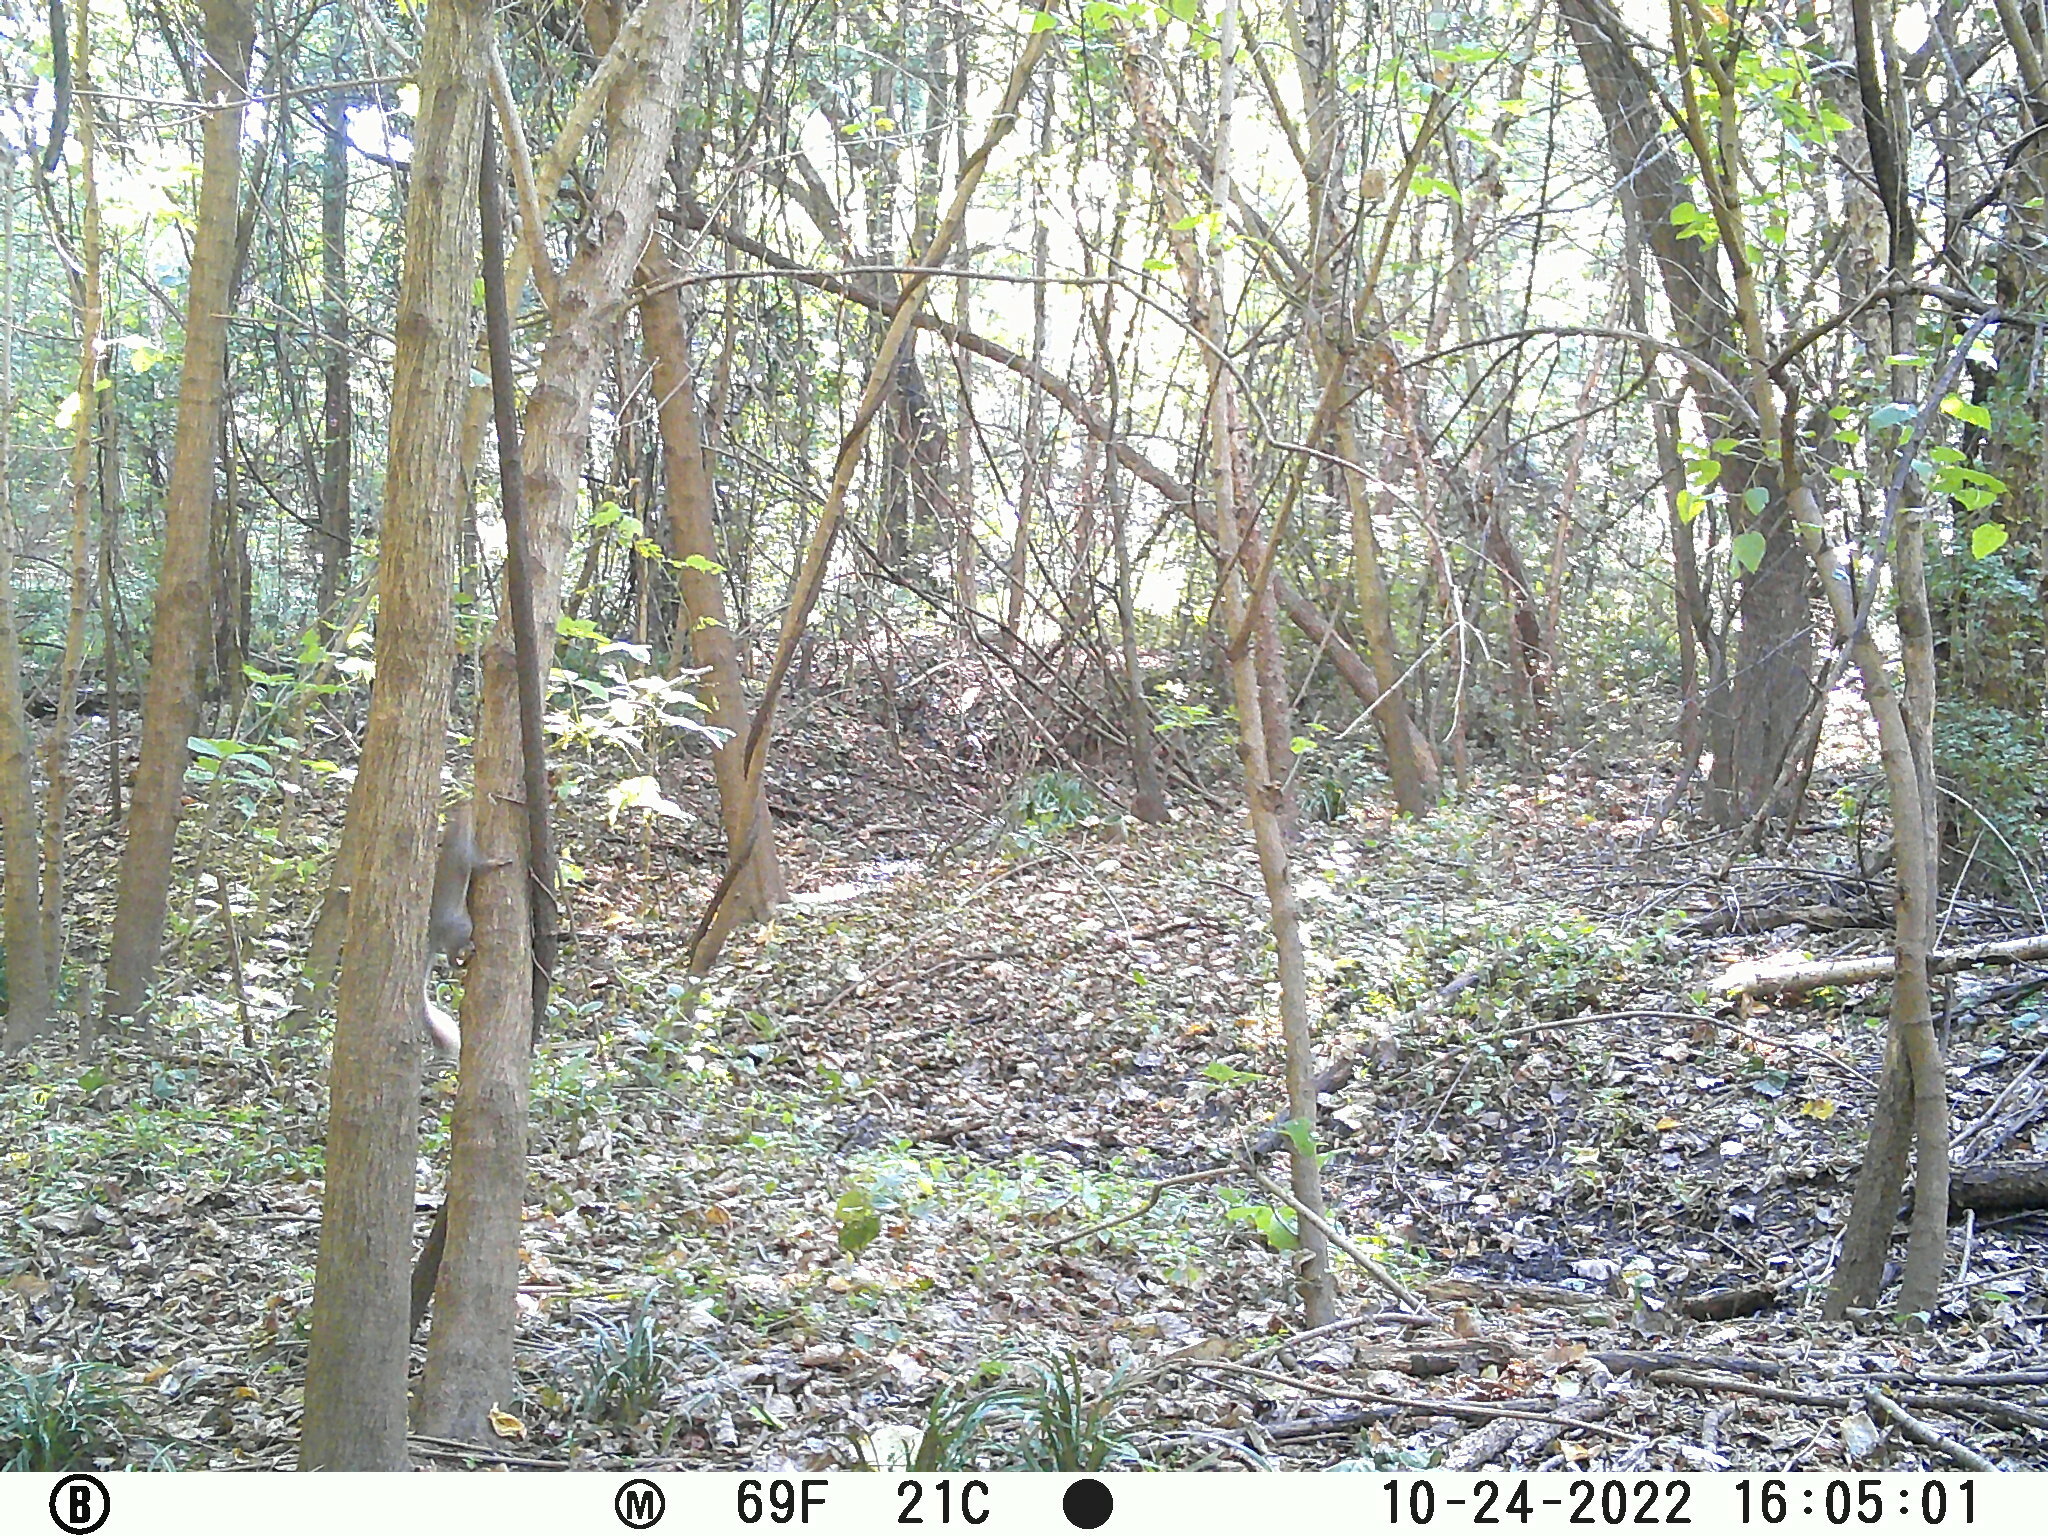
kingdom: Animalia
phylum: Chordata
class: Mammalia
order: Rodentia
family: Sciuridae
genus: Sciurus
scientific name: Sciurus carolinensis
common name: Eastern gray squirrel
